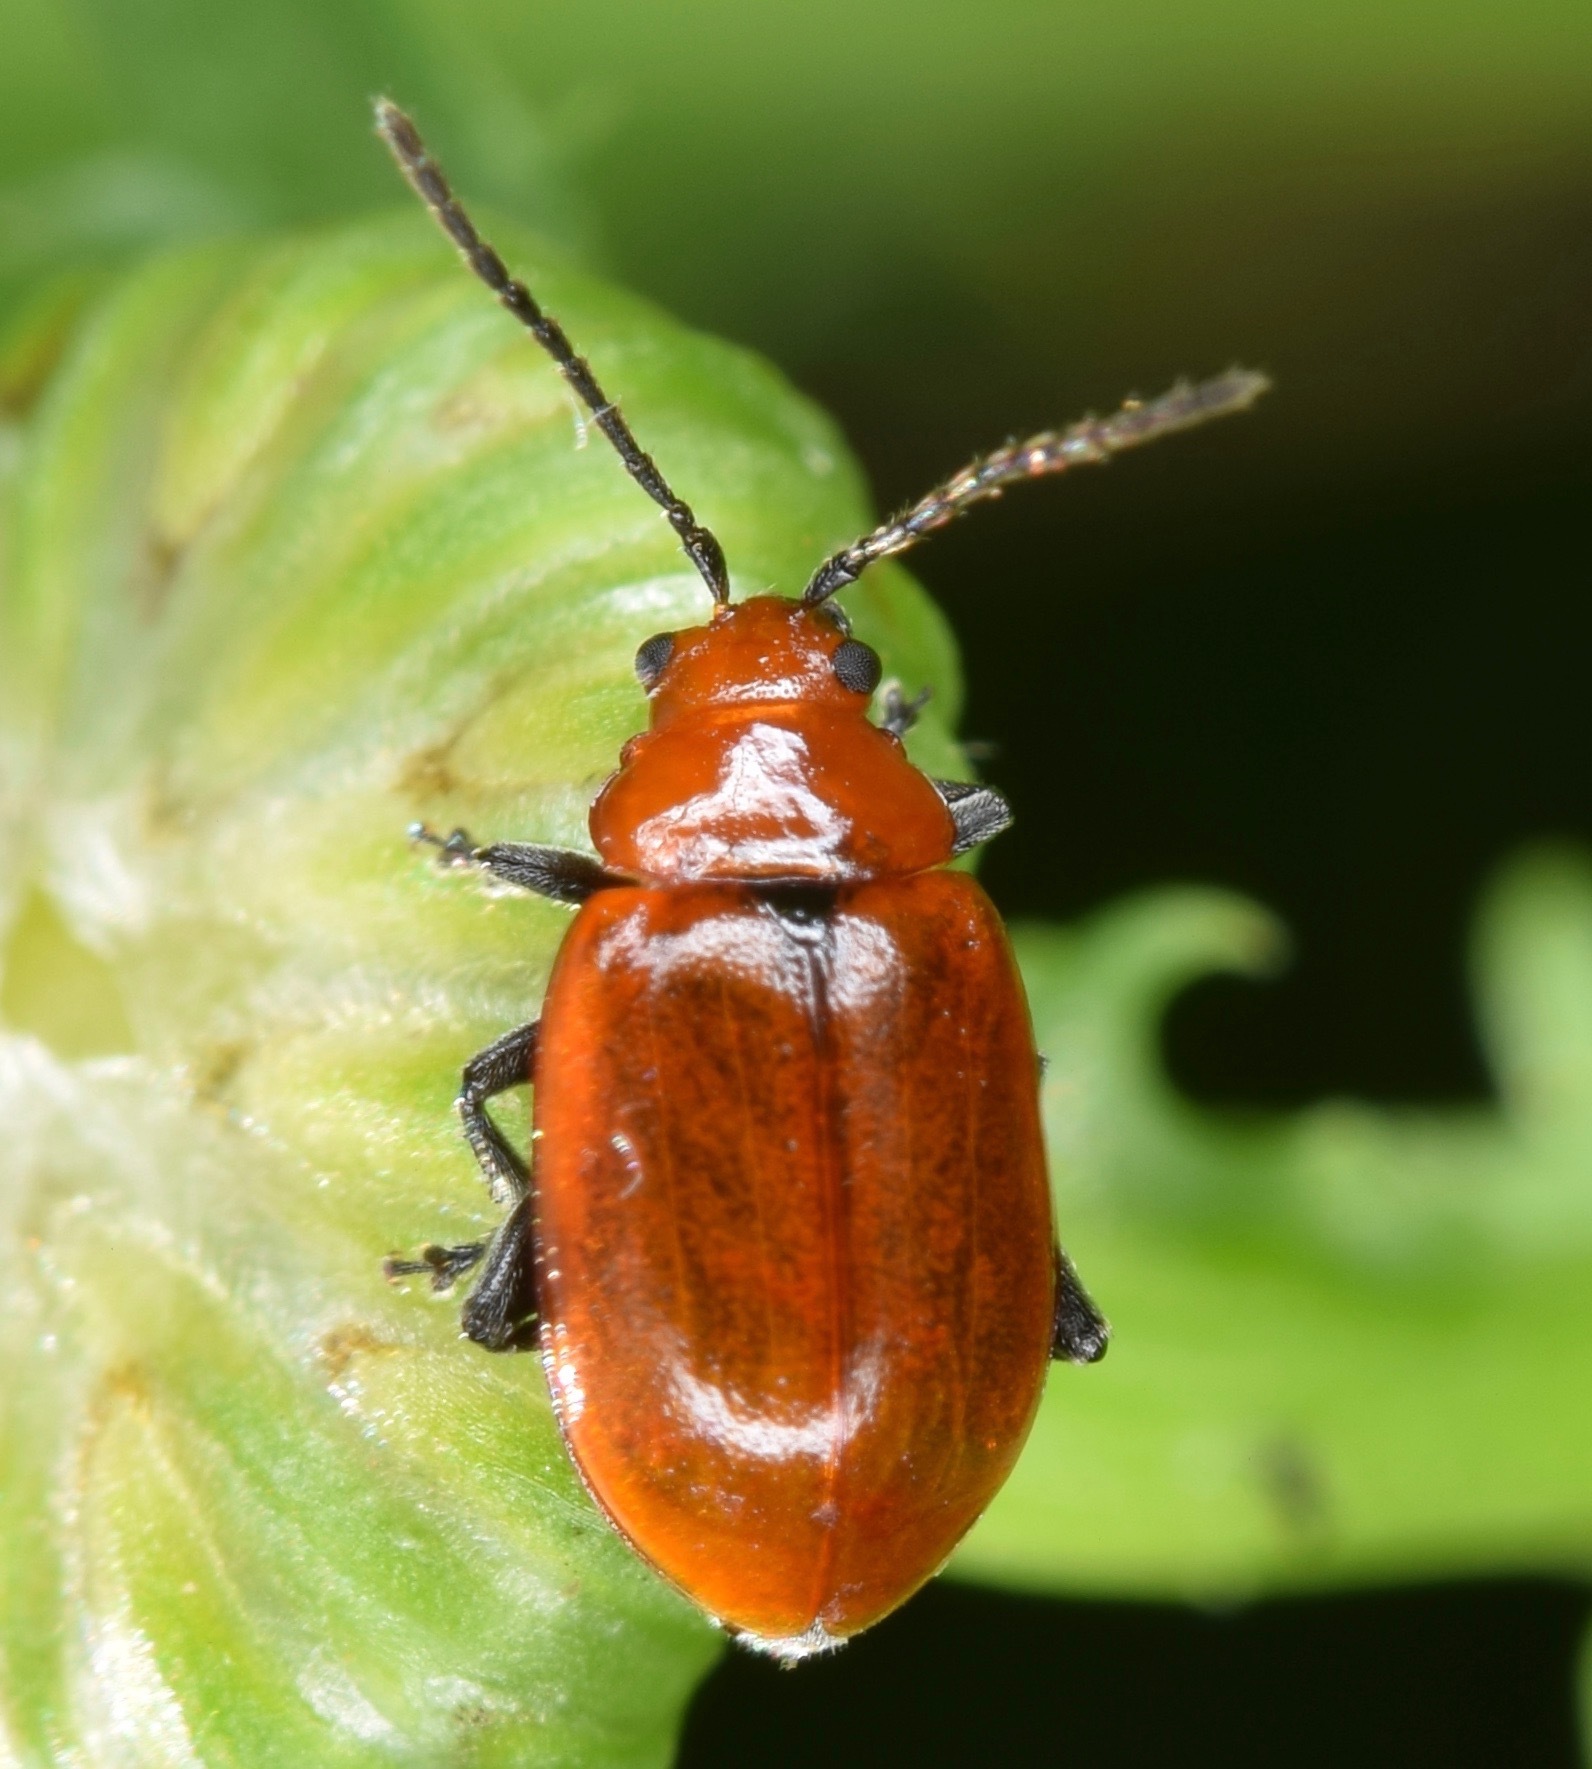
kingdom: Animalia
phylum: Arthropoda
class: Insecta
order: Coleoptera
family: Chrysomelidae
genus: Strabala
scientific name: Strabala rufa
